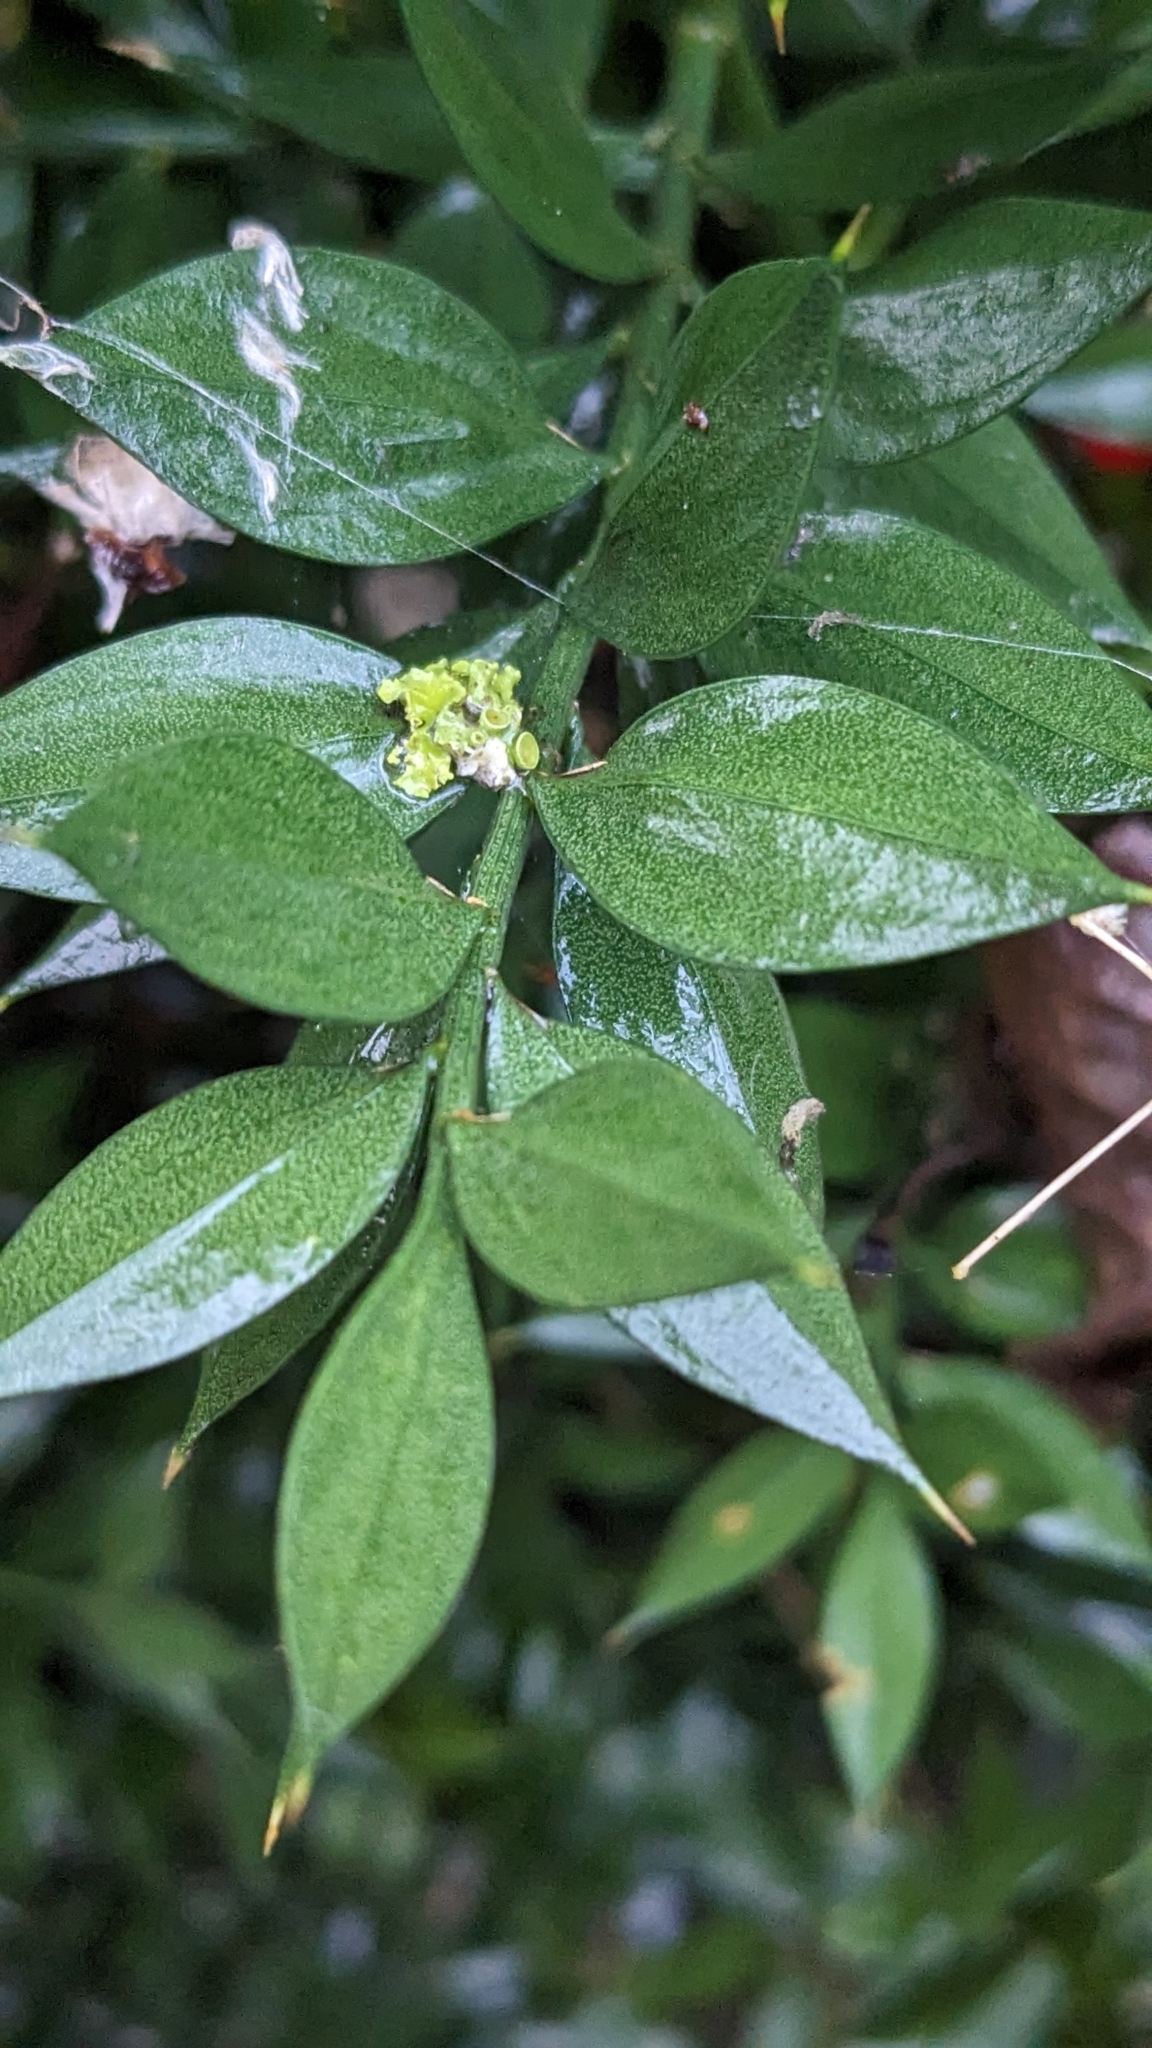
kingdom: Plantae
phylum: Tracheophyta
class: Liliopsida
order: Asparagales
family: Asparagaceae
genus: Ruscus
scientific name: Ruscus aculeatus
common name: Butcher's-broom
